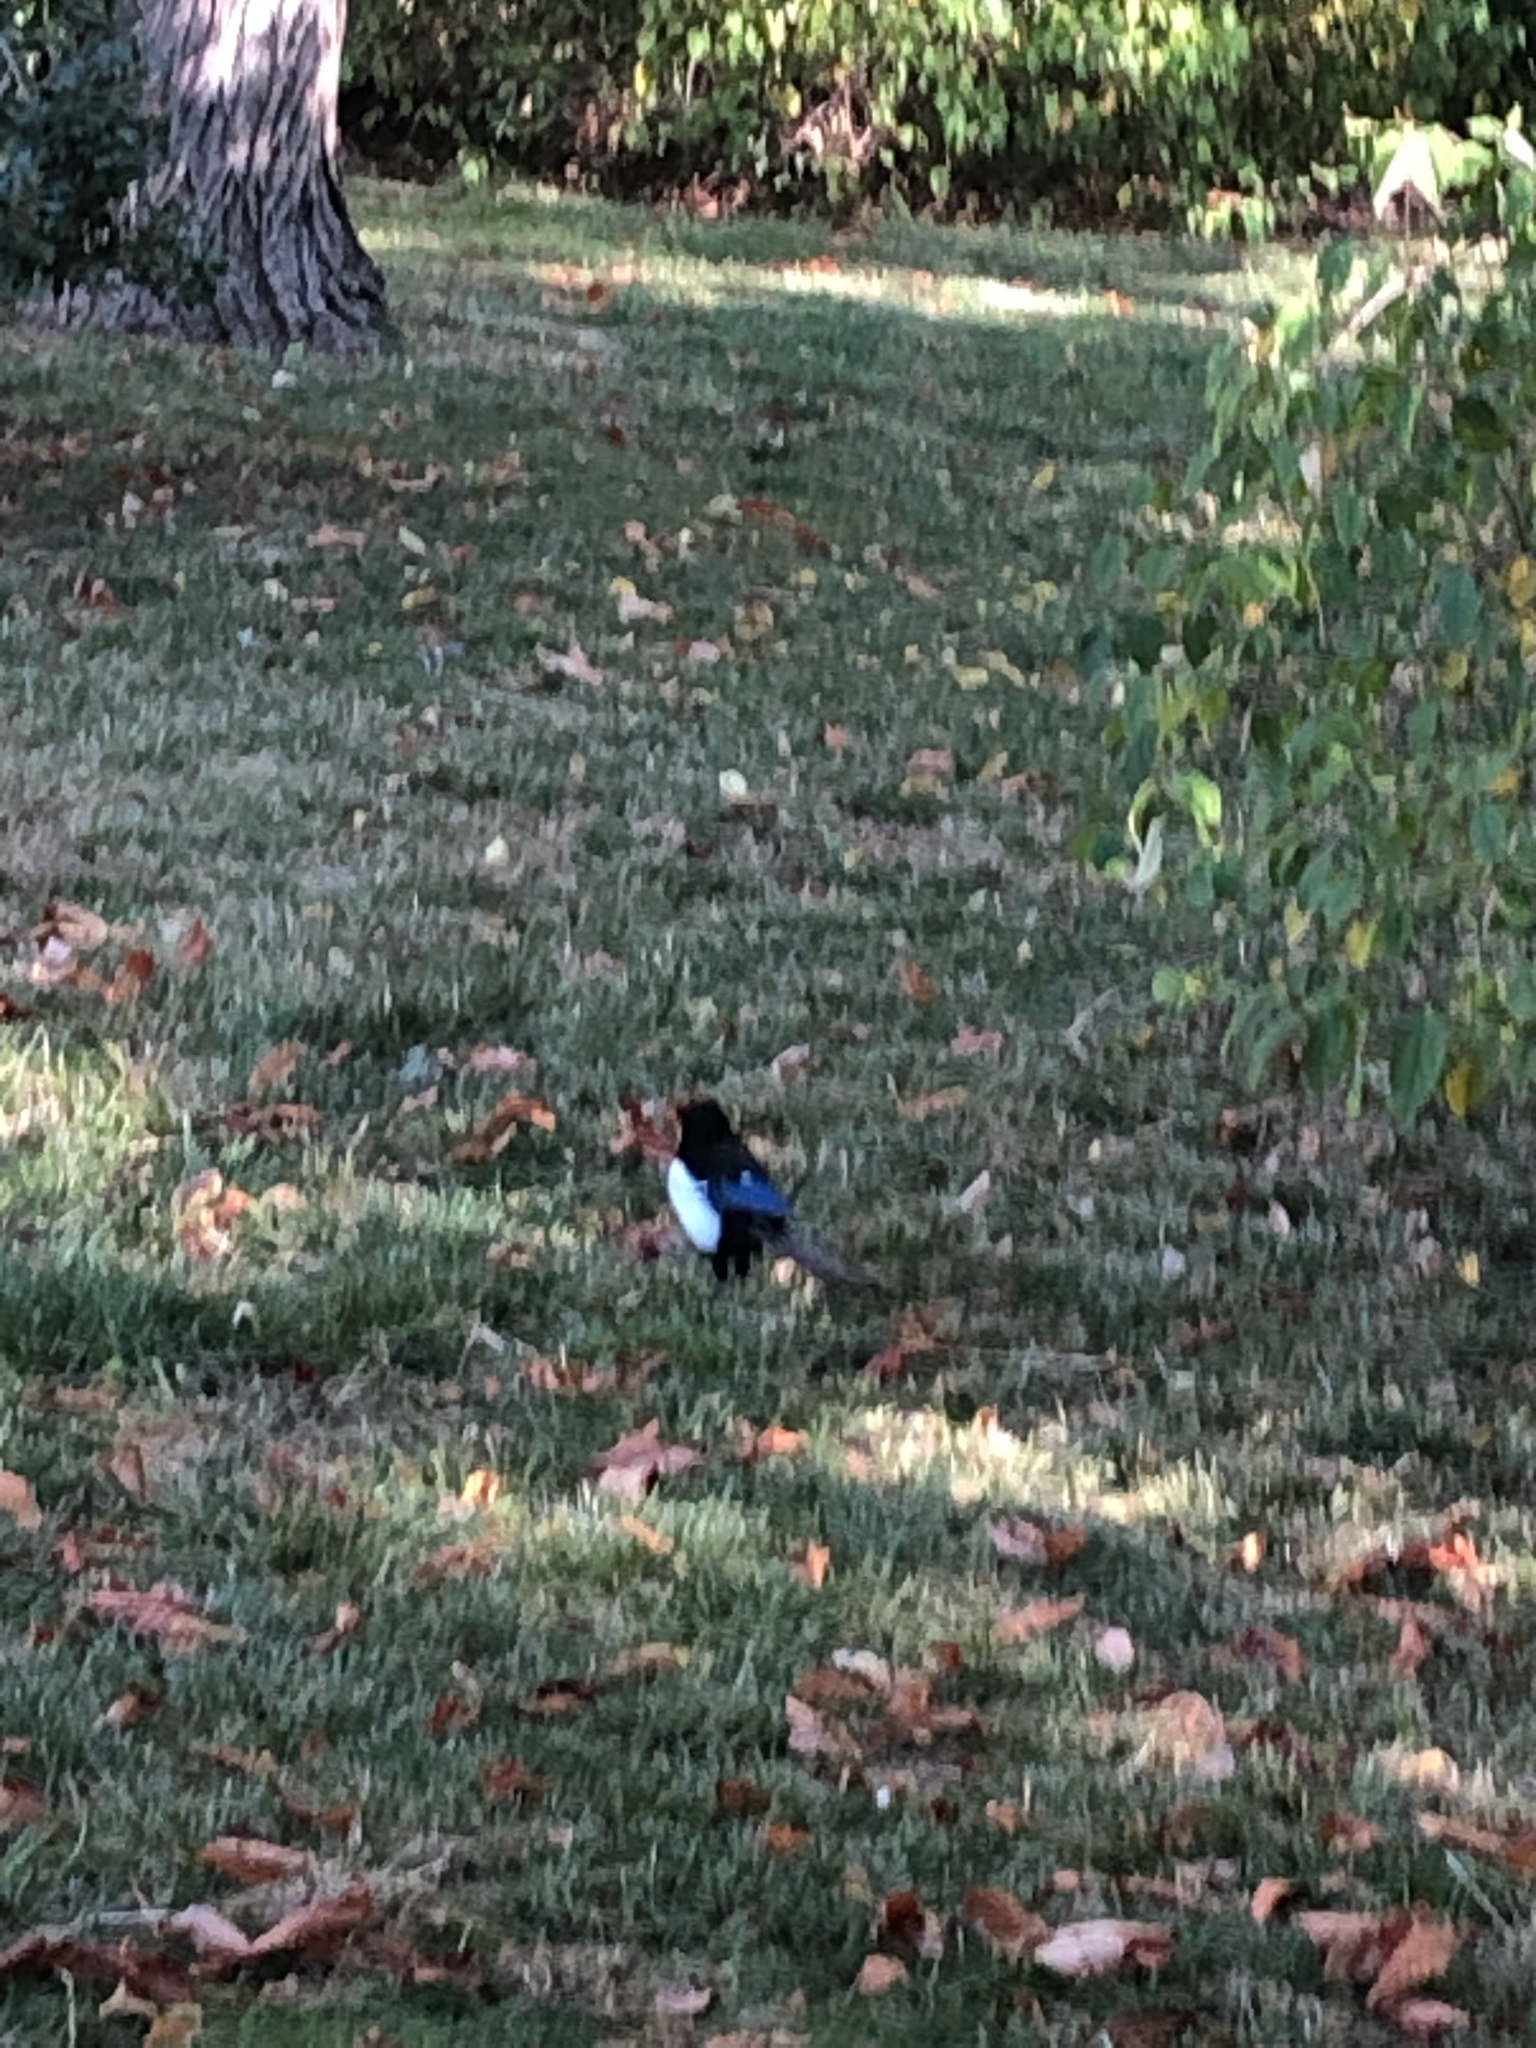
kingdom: Animalia
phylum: Chordata
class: Aves
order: Passeriformes
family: Corvidae
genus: Pica
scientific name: Pica pica
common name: Eurasian magpie
